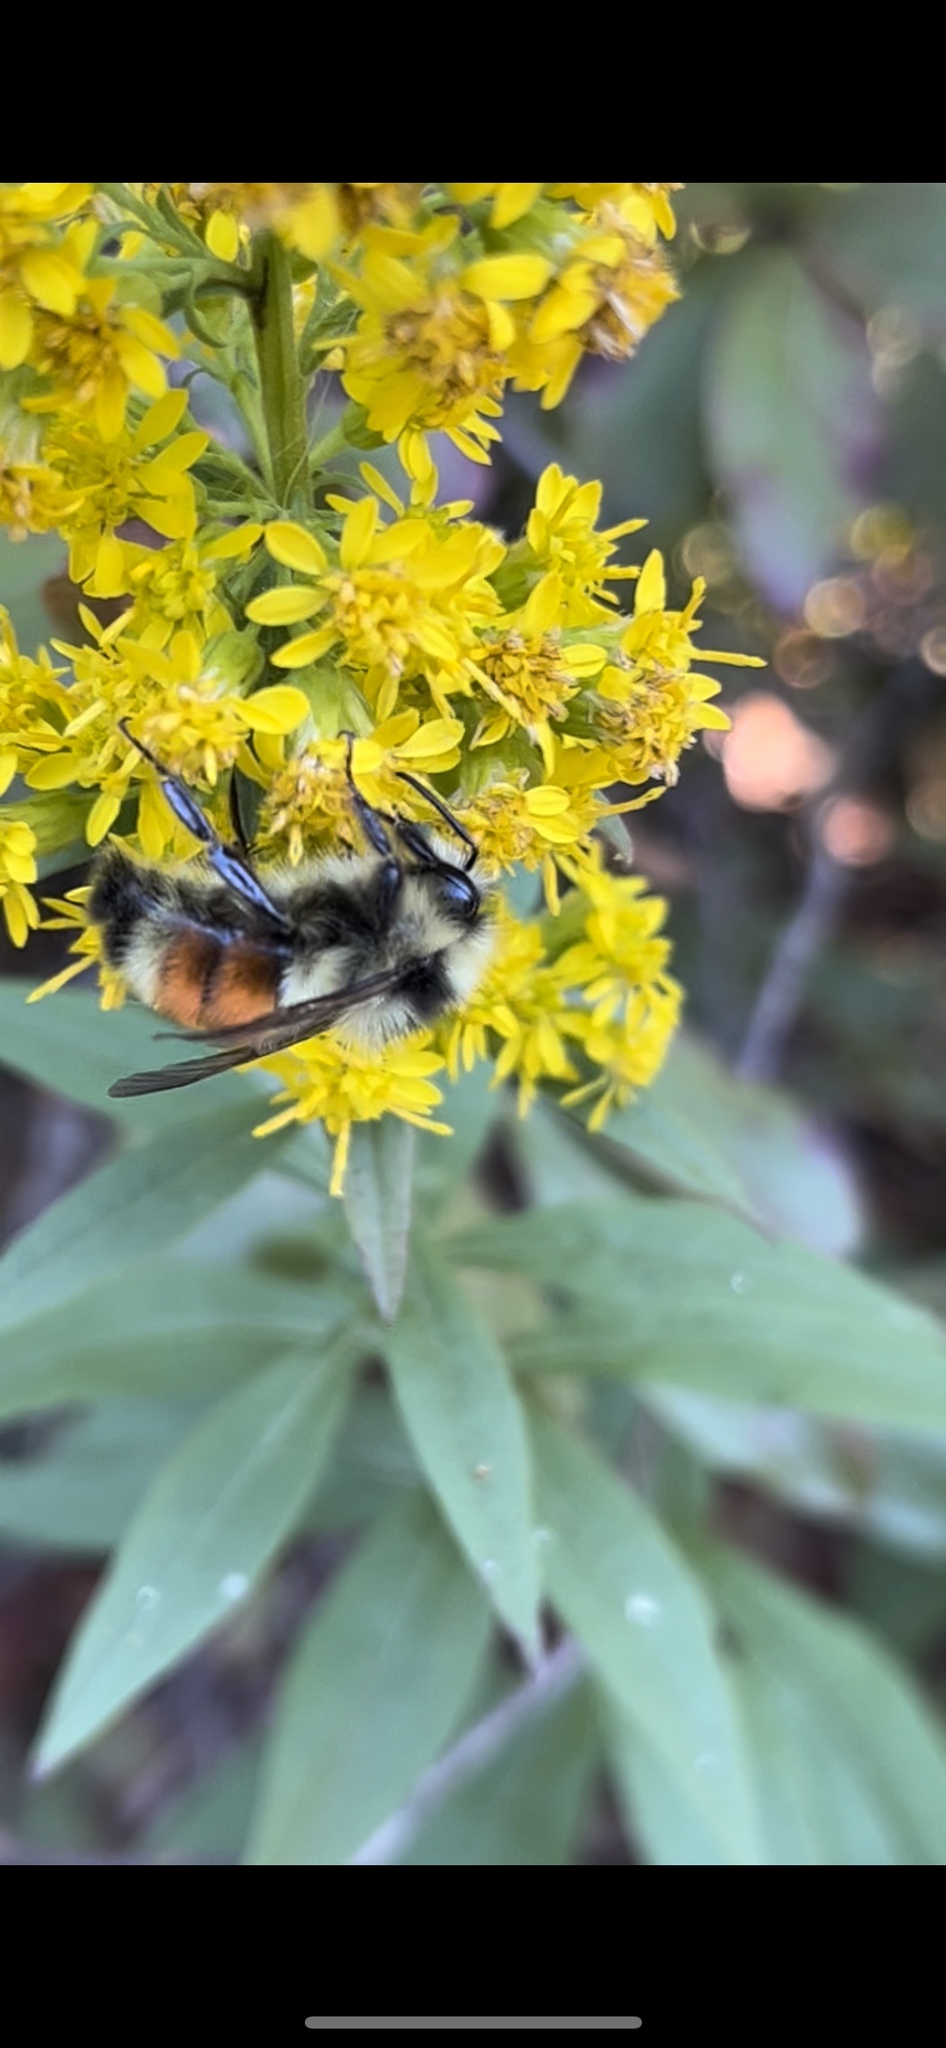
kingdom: Animalia
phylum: Arthropoda
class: Insecta
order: Hymenoptera
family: Apidae
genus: Bombus
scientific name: Bombus ternarius
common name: Tri-colored bumble bee
